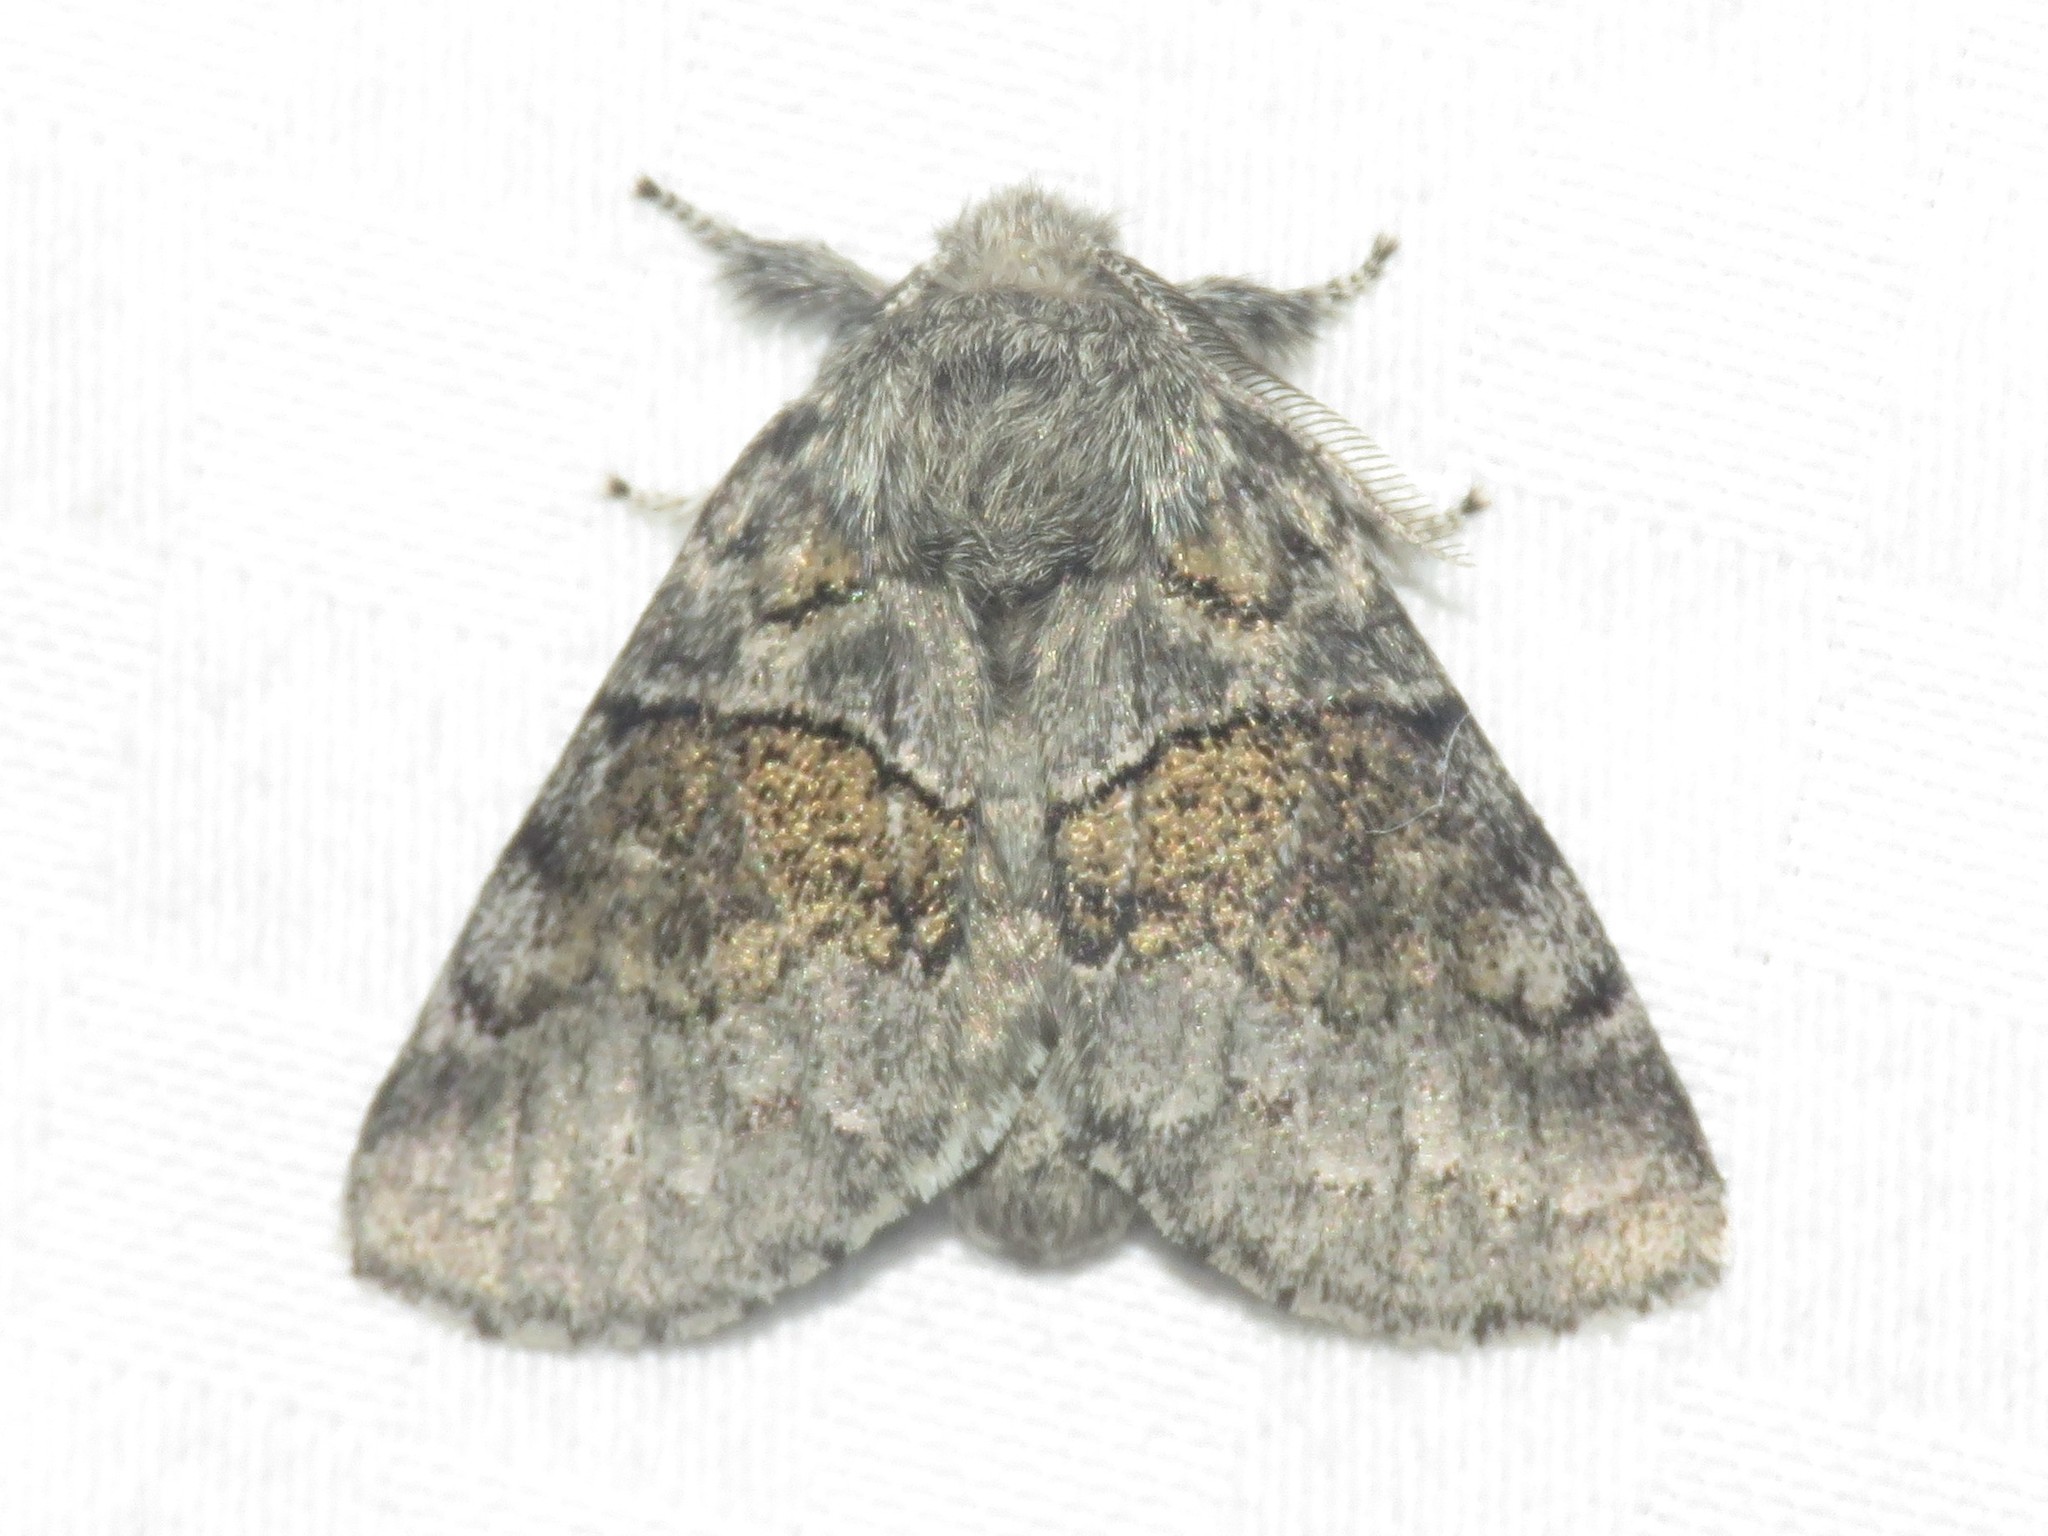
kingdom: Animalia
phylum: Arthropoda
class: Insecta
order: Lepidoptera
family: Notodontidae
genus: Gluphisia
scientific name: Gluphisia septentrionis
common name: Common gluphisia
